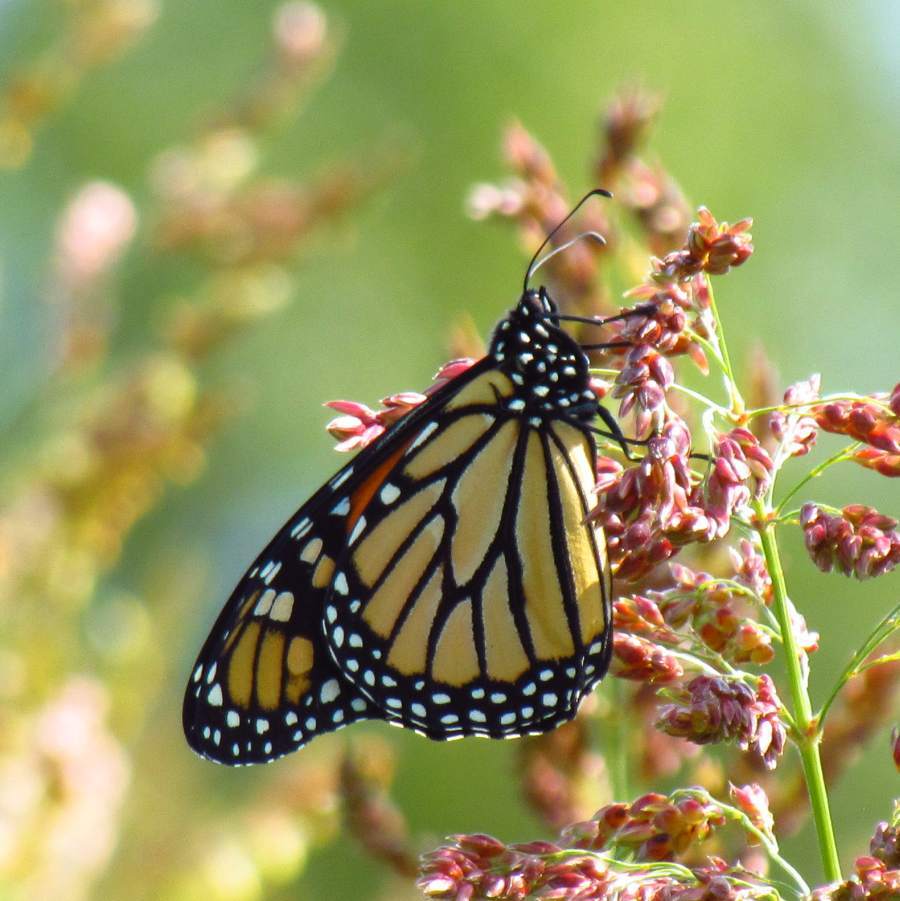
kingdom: Animalia
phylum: Arthropoda
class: Insecta
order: Lepidoptera
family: Nymphalidae
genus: Danaus
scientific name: Danaus plexippus
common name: Monarch
